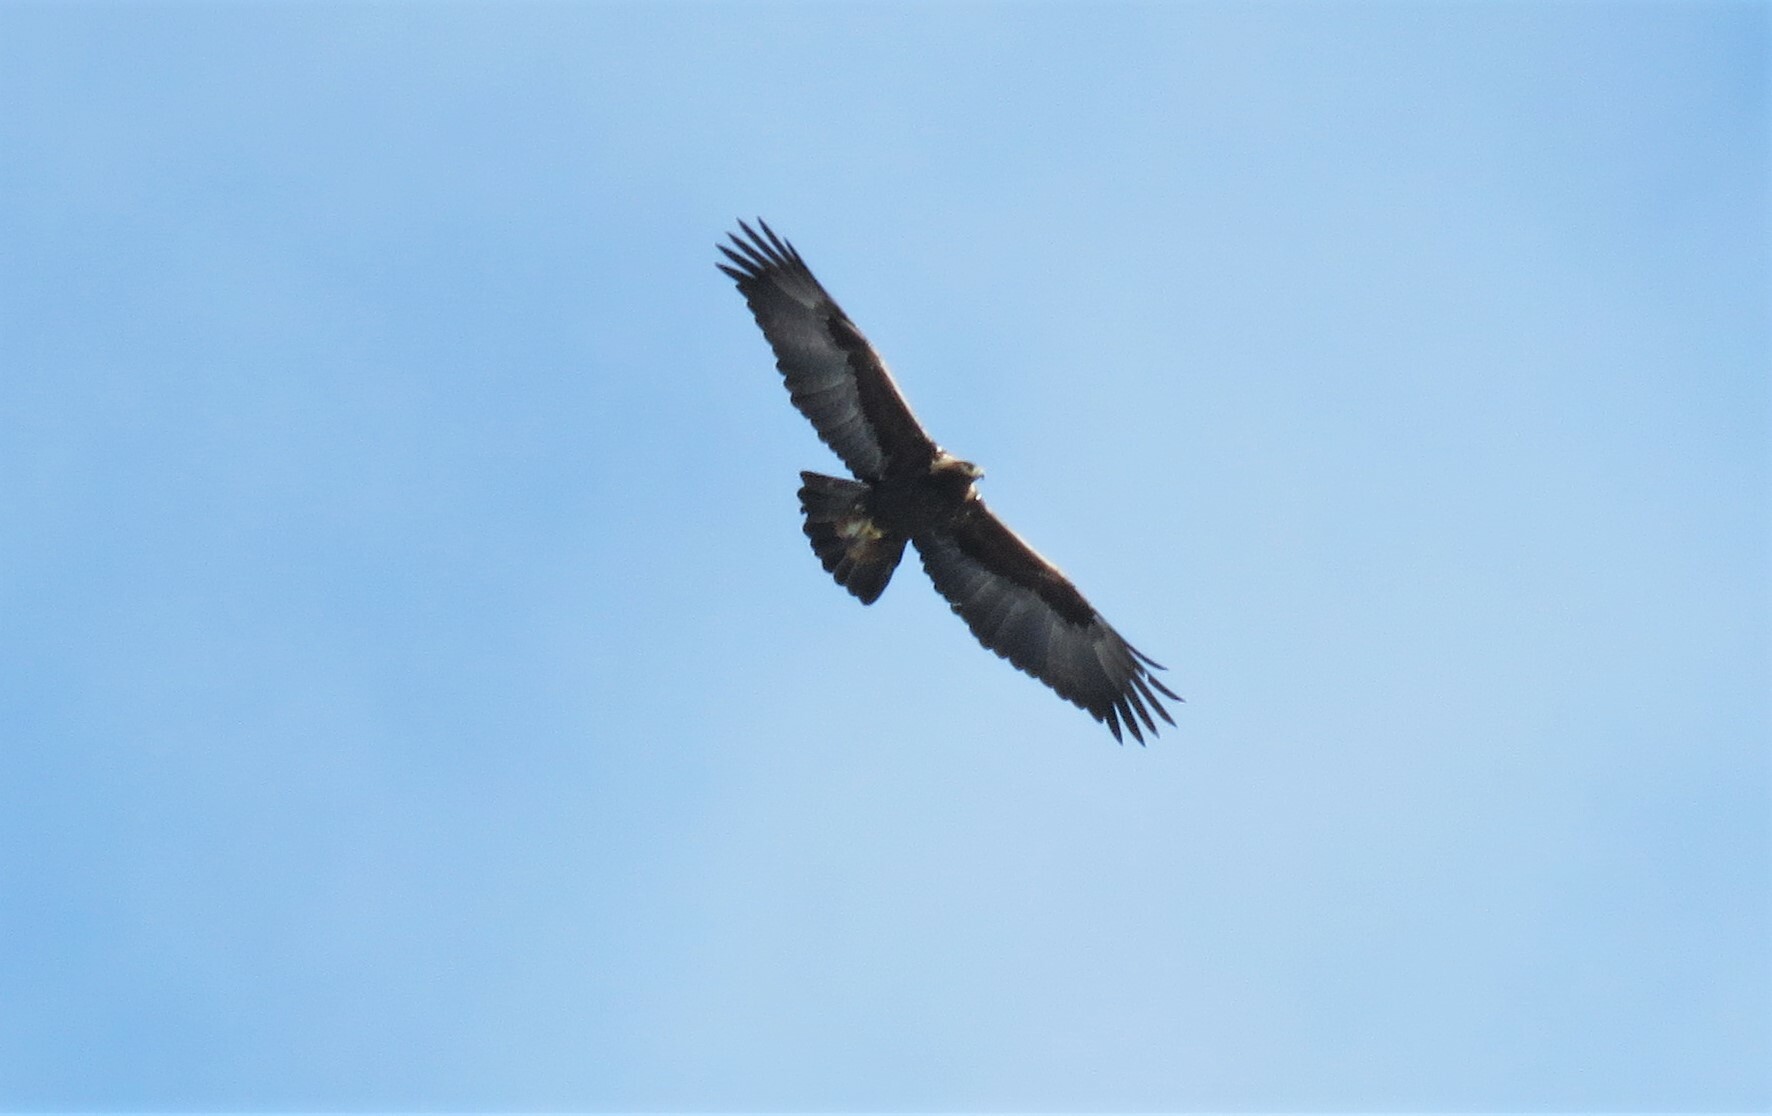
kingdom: Animalia
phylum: Chordata
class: Aves
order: Accipitriformes
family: Accipitridae
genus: Aquila
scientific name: Aquila chrysaetos
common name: Golden eagle
